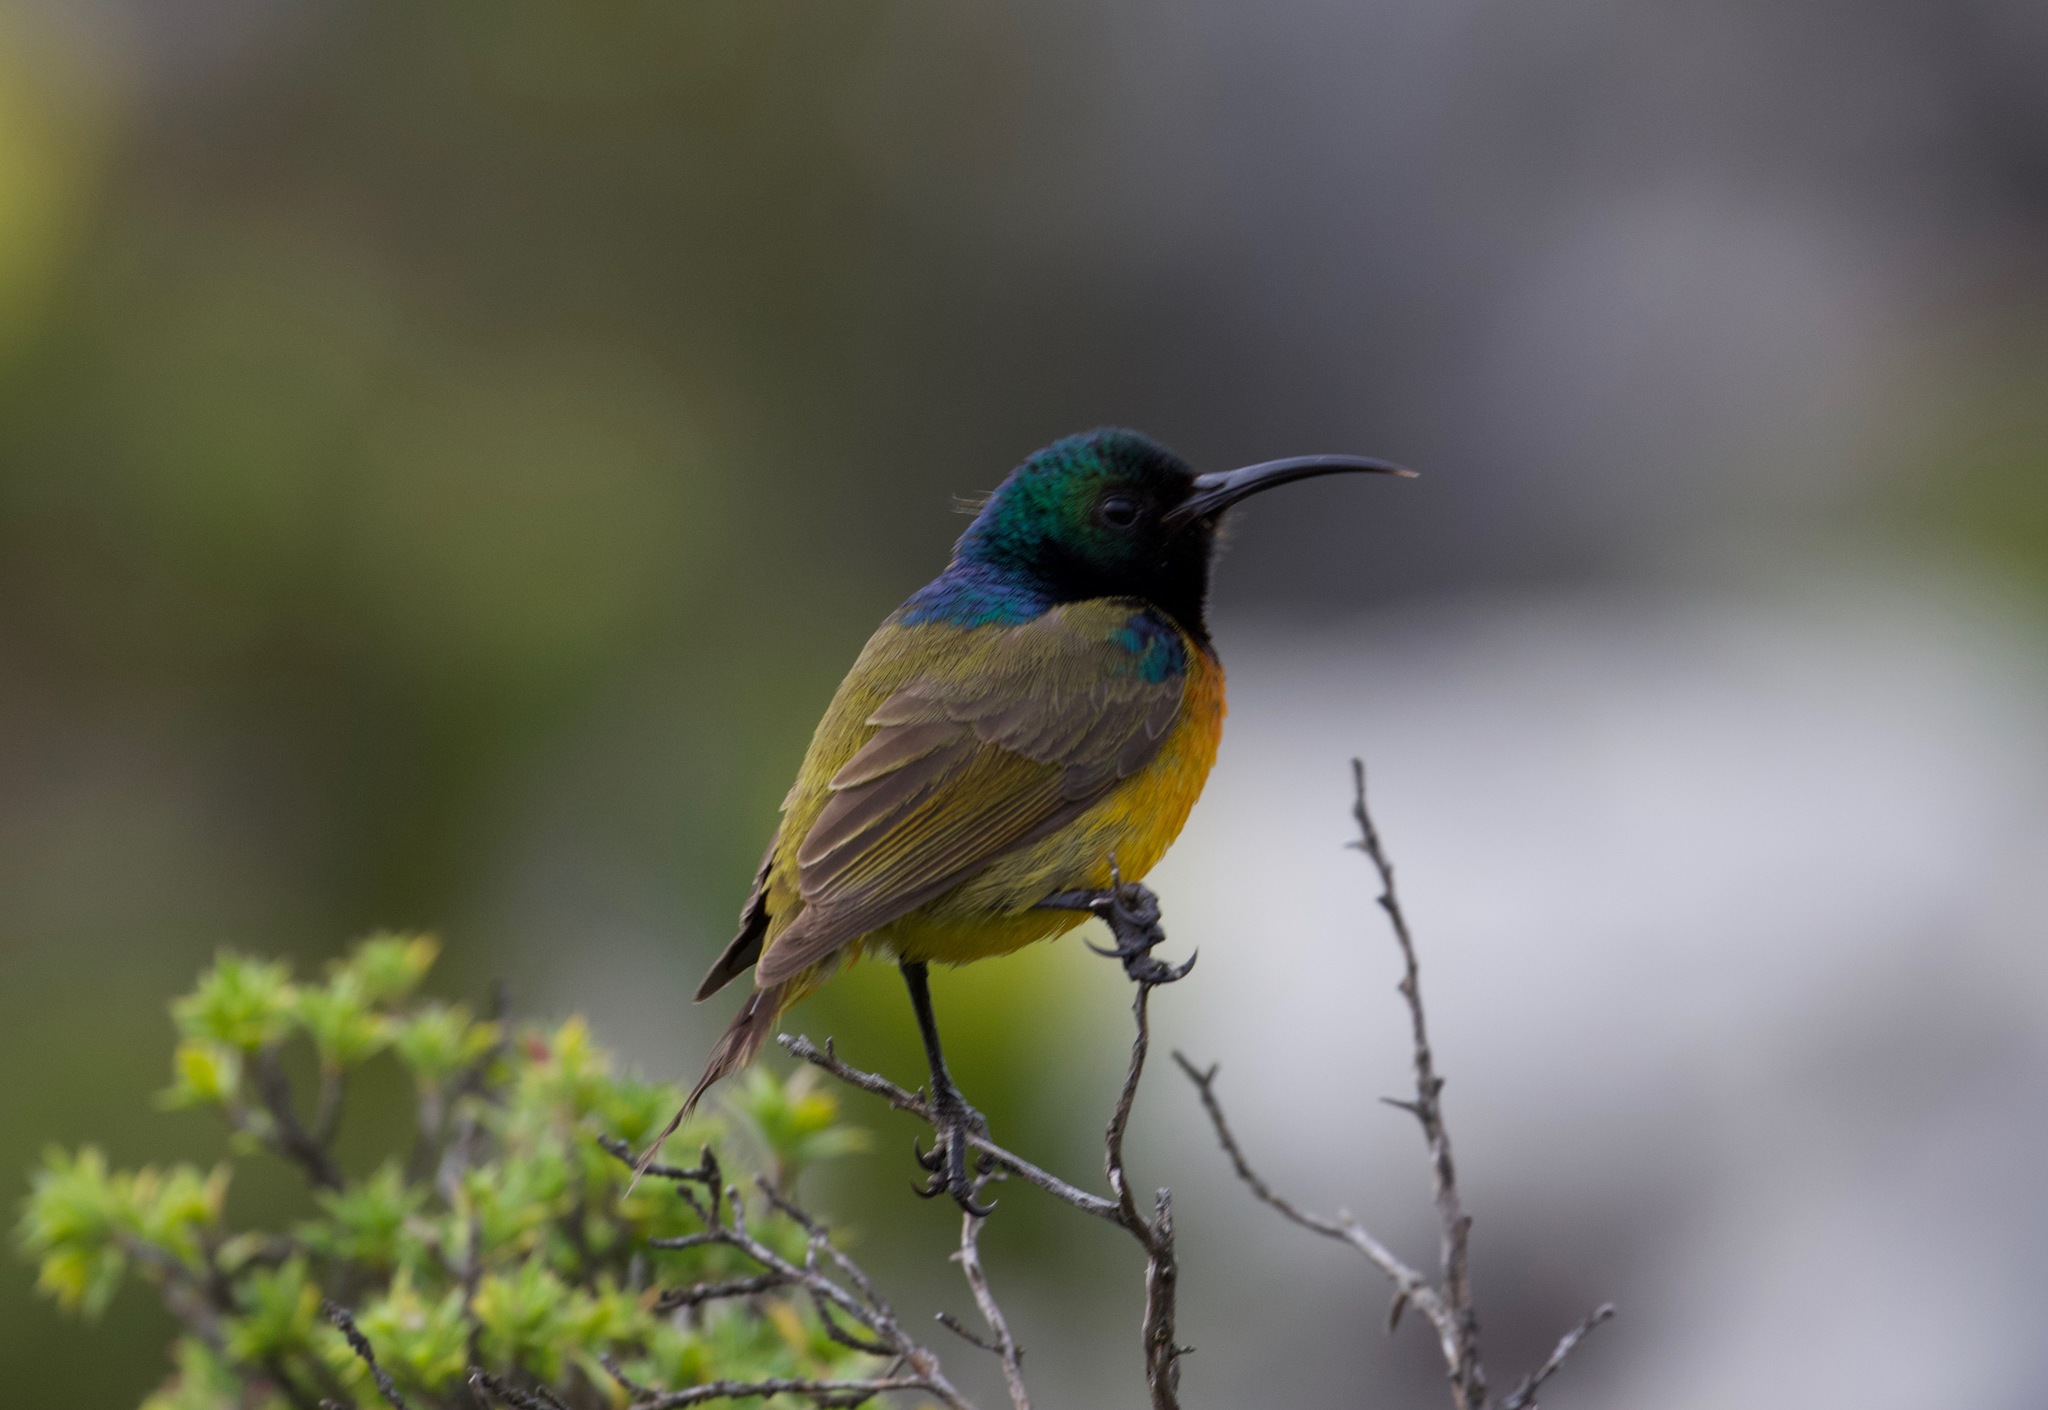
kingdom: Animalia
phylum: Chordata
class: Aves
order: Passeriformes
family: Nectariniidae
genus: Anthobaphes
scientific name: Anthobaphes violacea
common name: Orange-breasted sunbird
